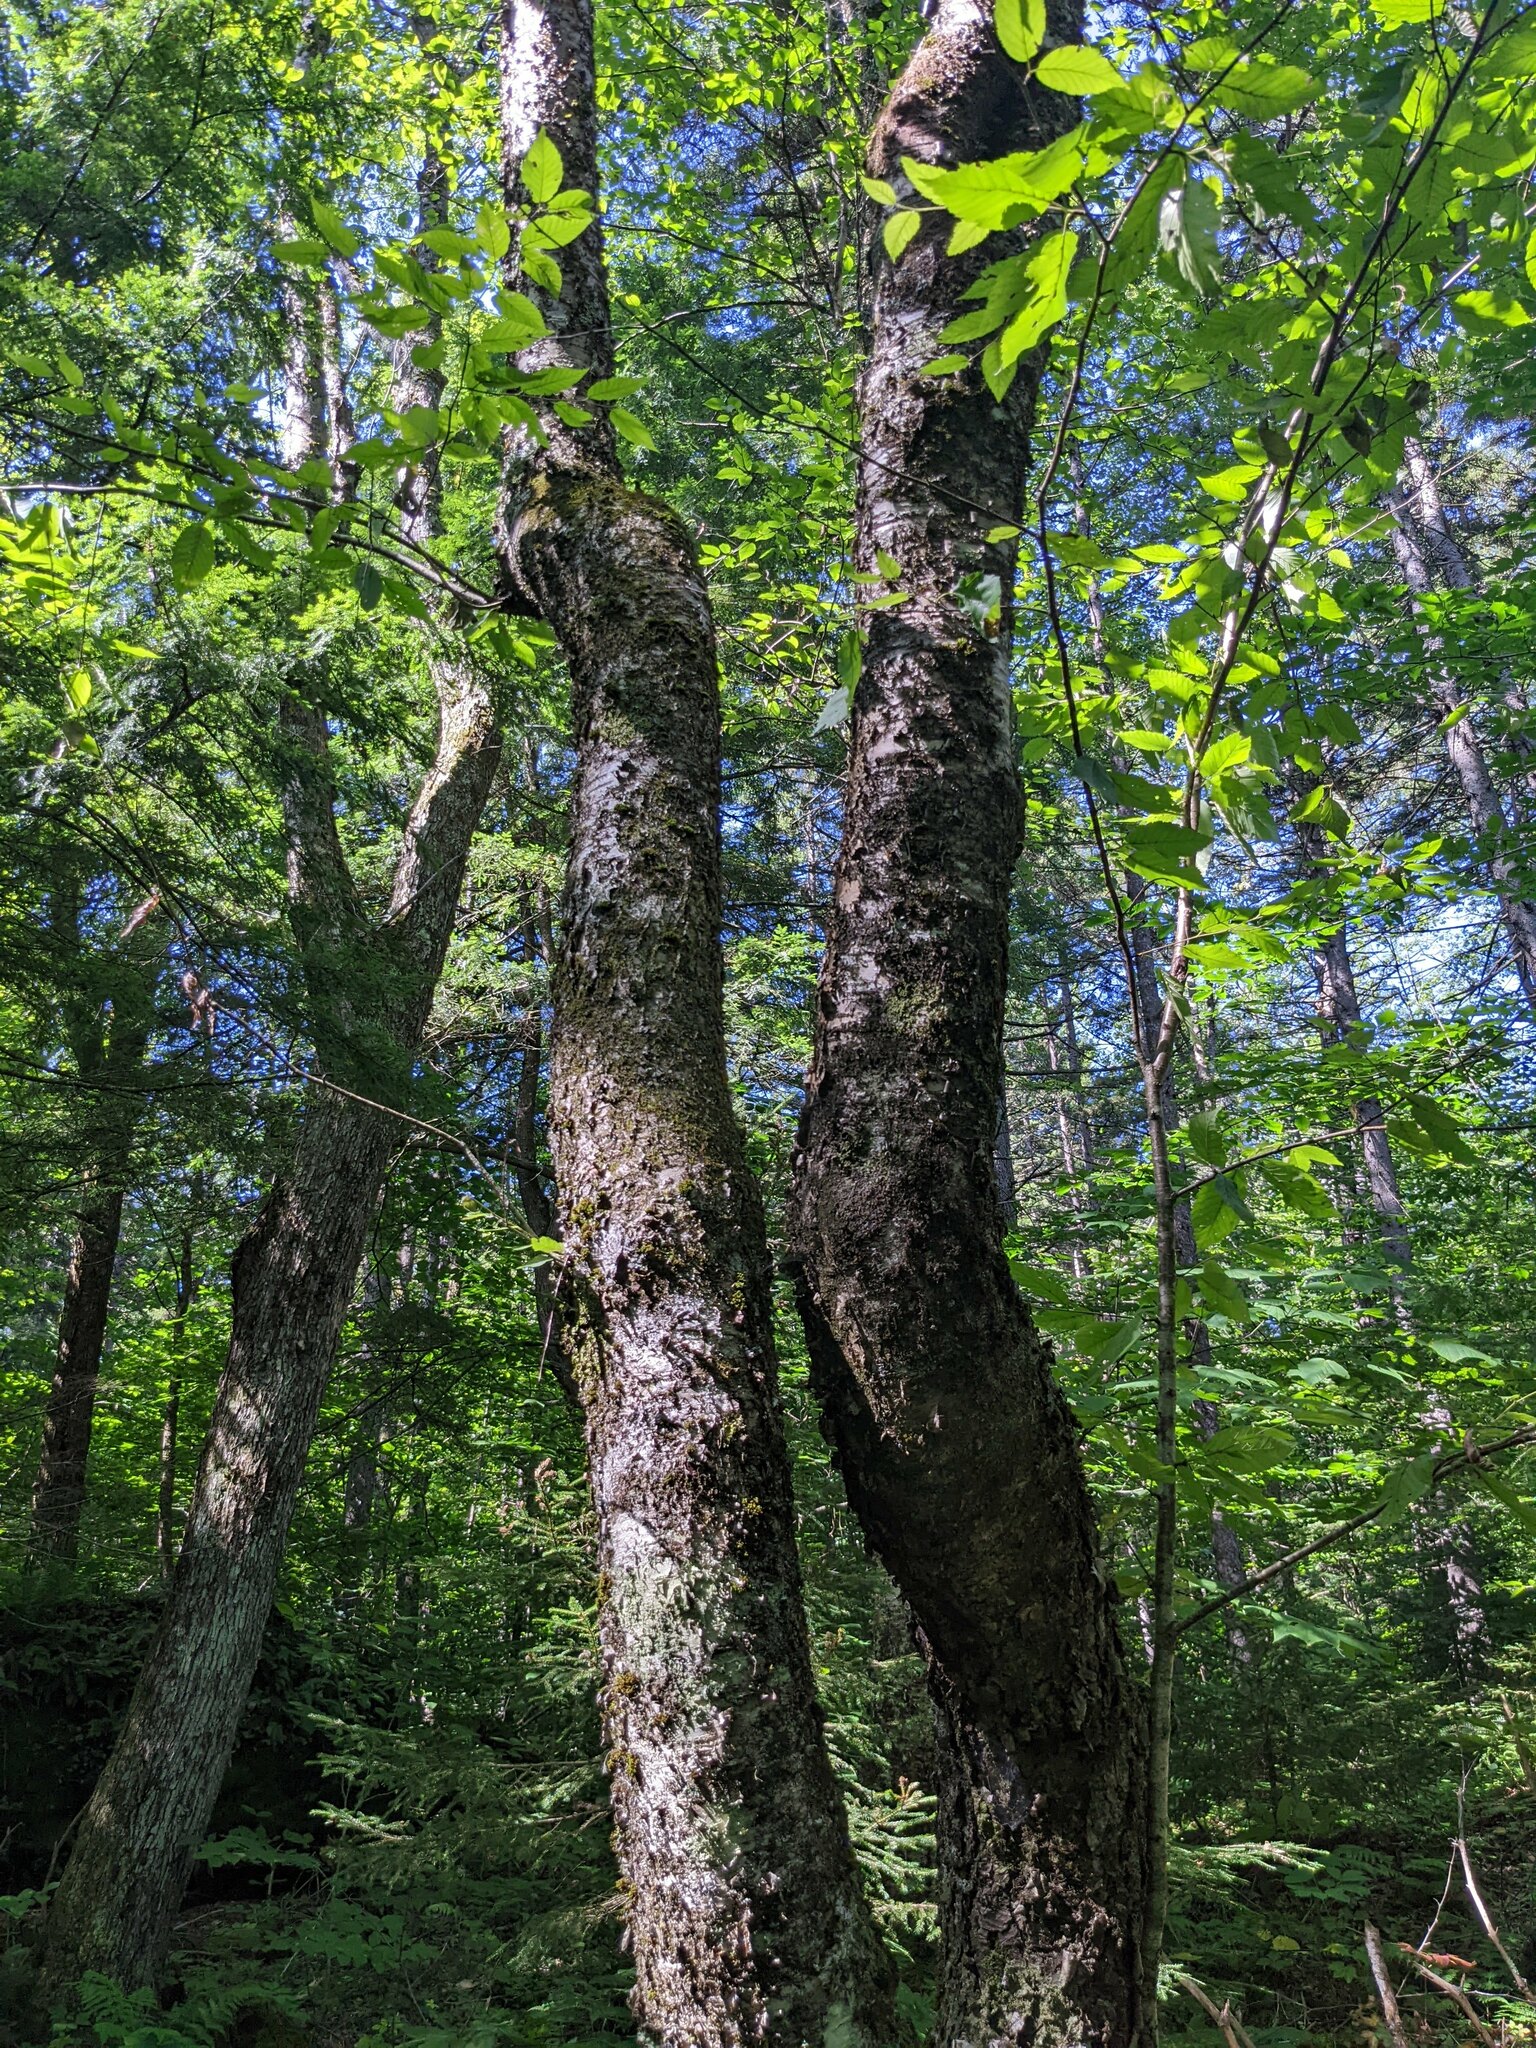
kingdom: Plantae
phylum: Tracheophyta
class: Magnoliopsida
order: Fagales
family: Betulaceae
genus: Betula
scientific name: Betula alleghaniensis
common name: Yellow birch
